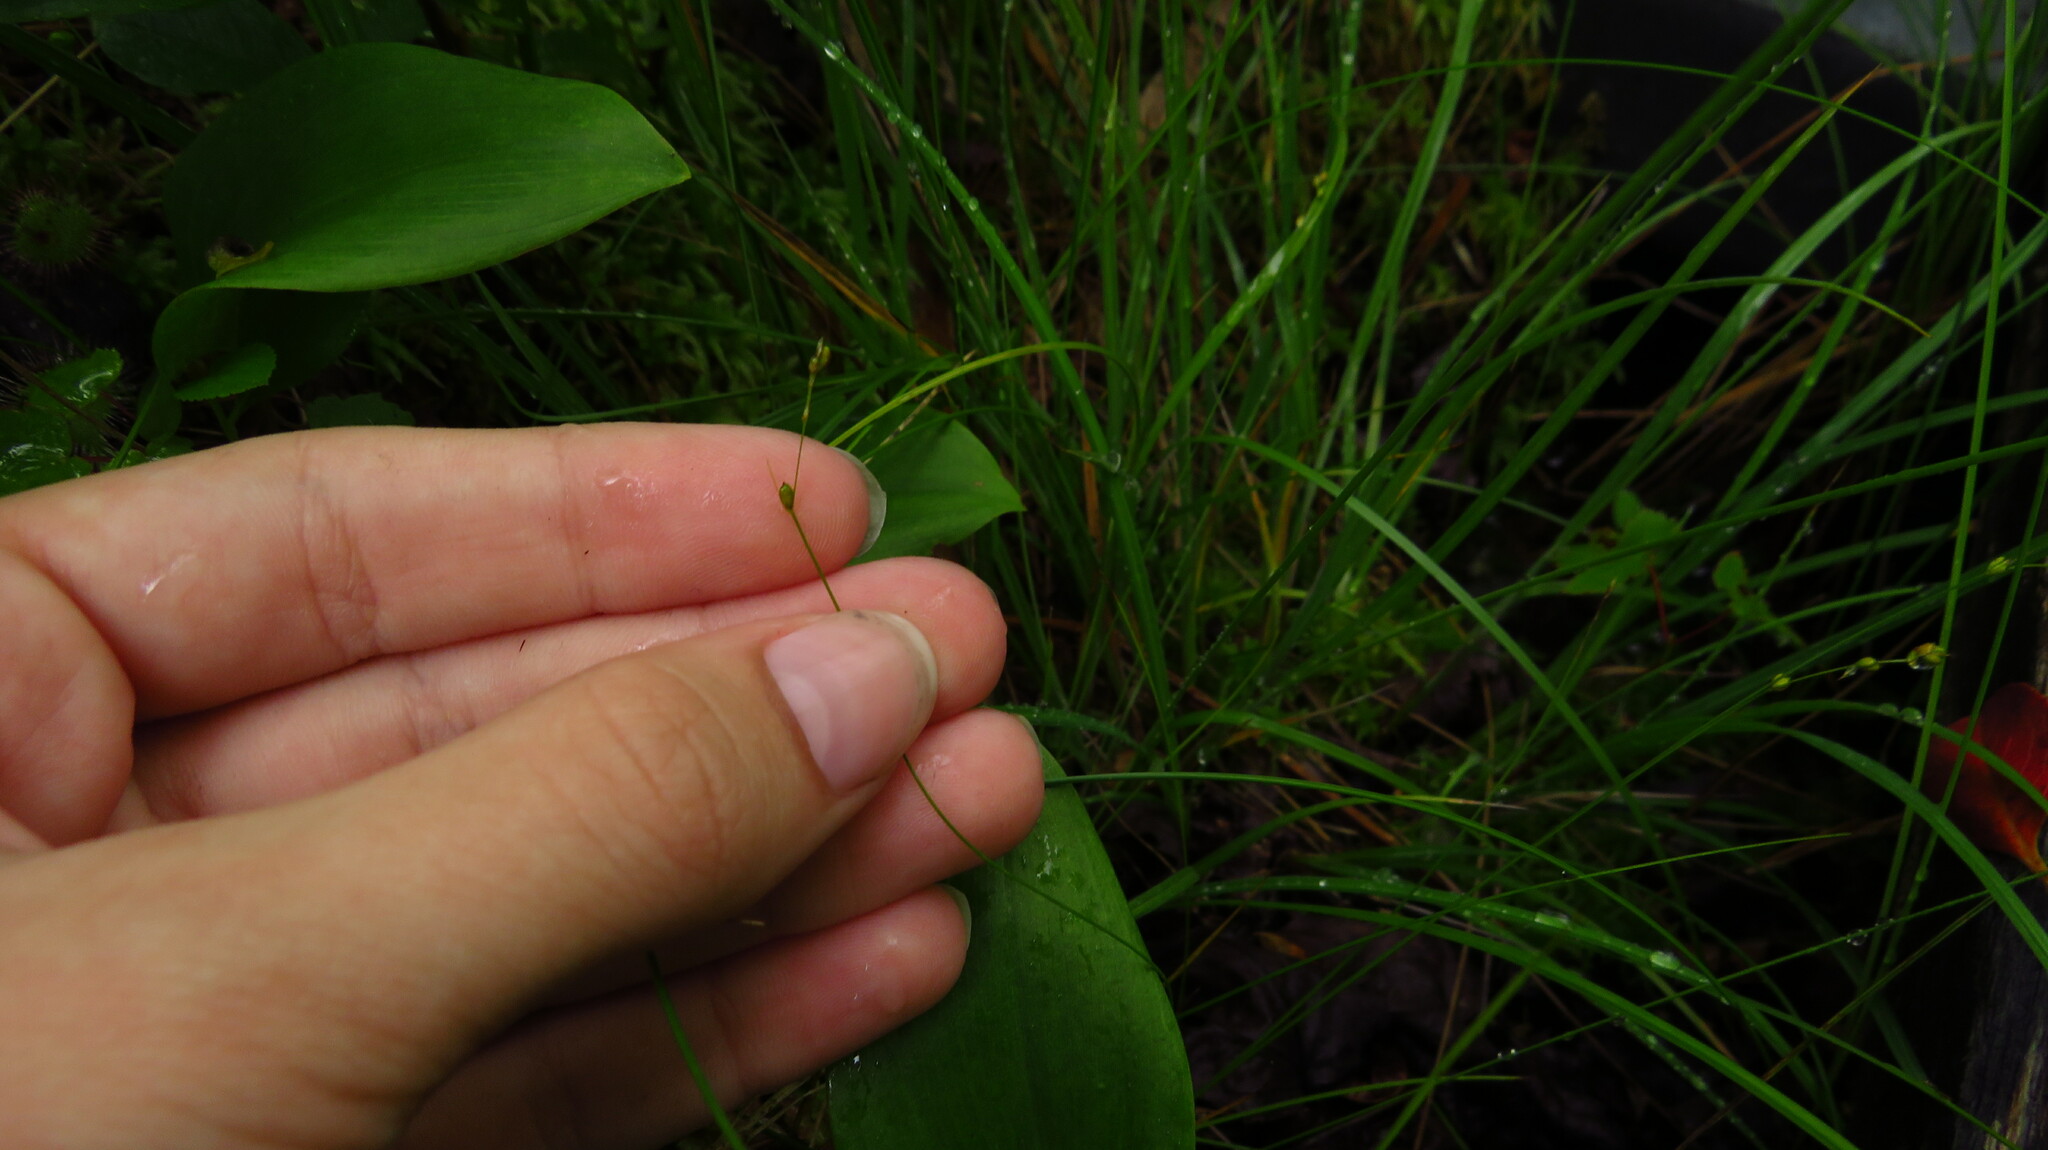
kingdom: Plantae
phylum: Tracheophyta
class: Liliopsida
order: Poales
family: Cyperaceae
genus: Carex
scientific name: Carex disperma
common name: Short-leaved sedge
